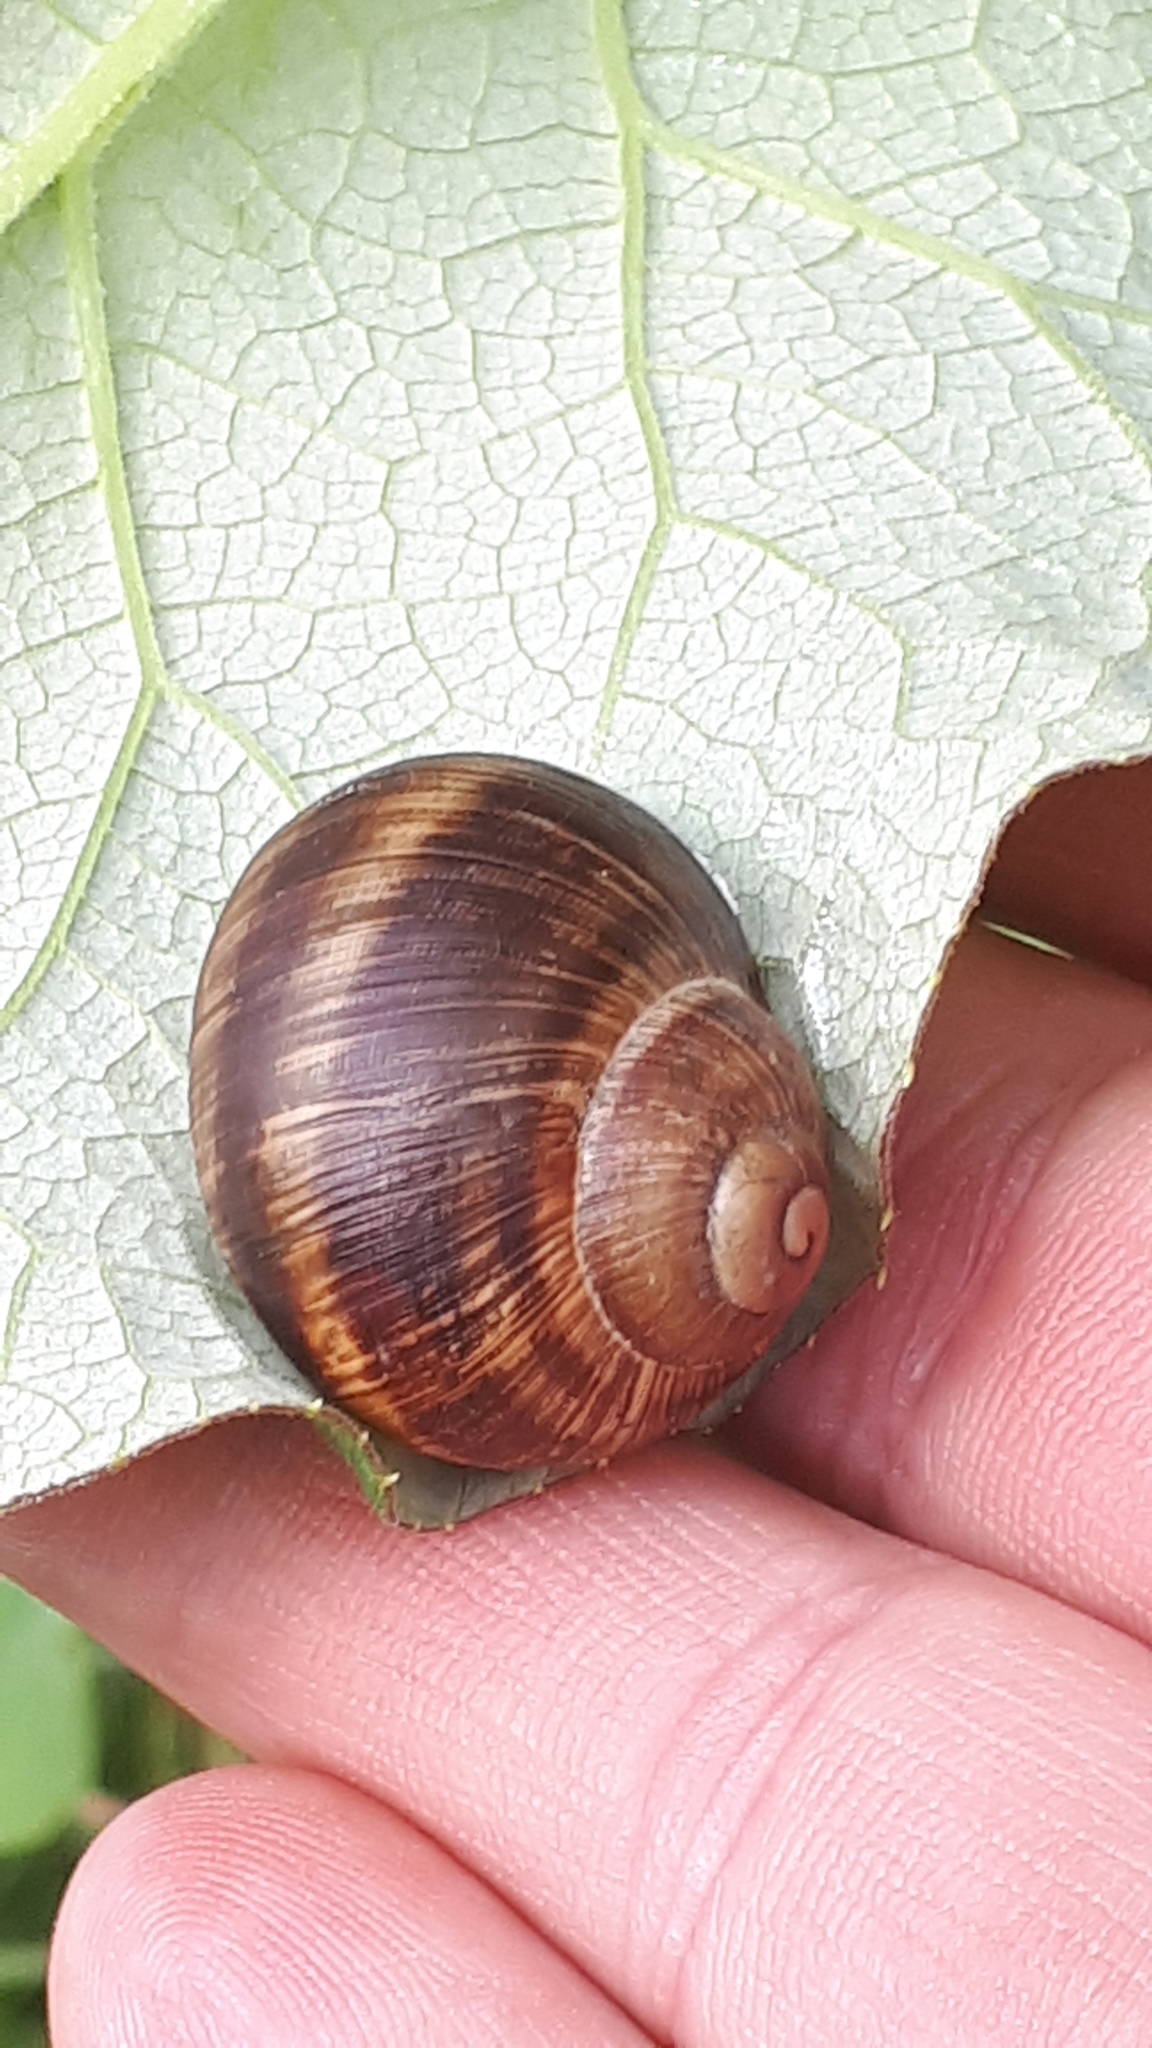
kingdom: Animalia
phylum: Mollusca
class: Gastropoda
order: Stylommatophora
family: Helicidae
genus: Helix
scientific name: Helix pomatia
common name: Roman snail
